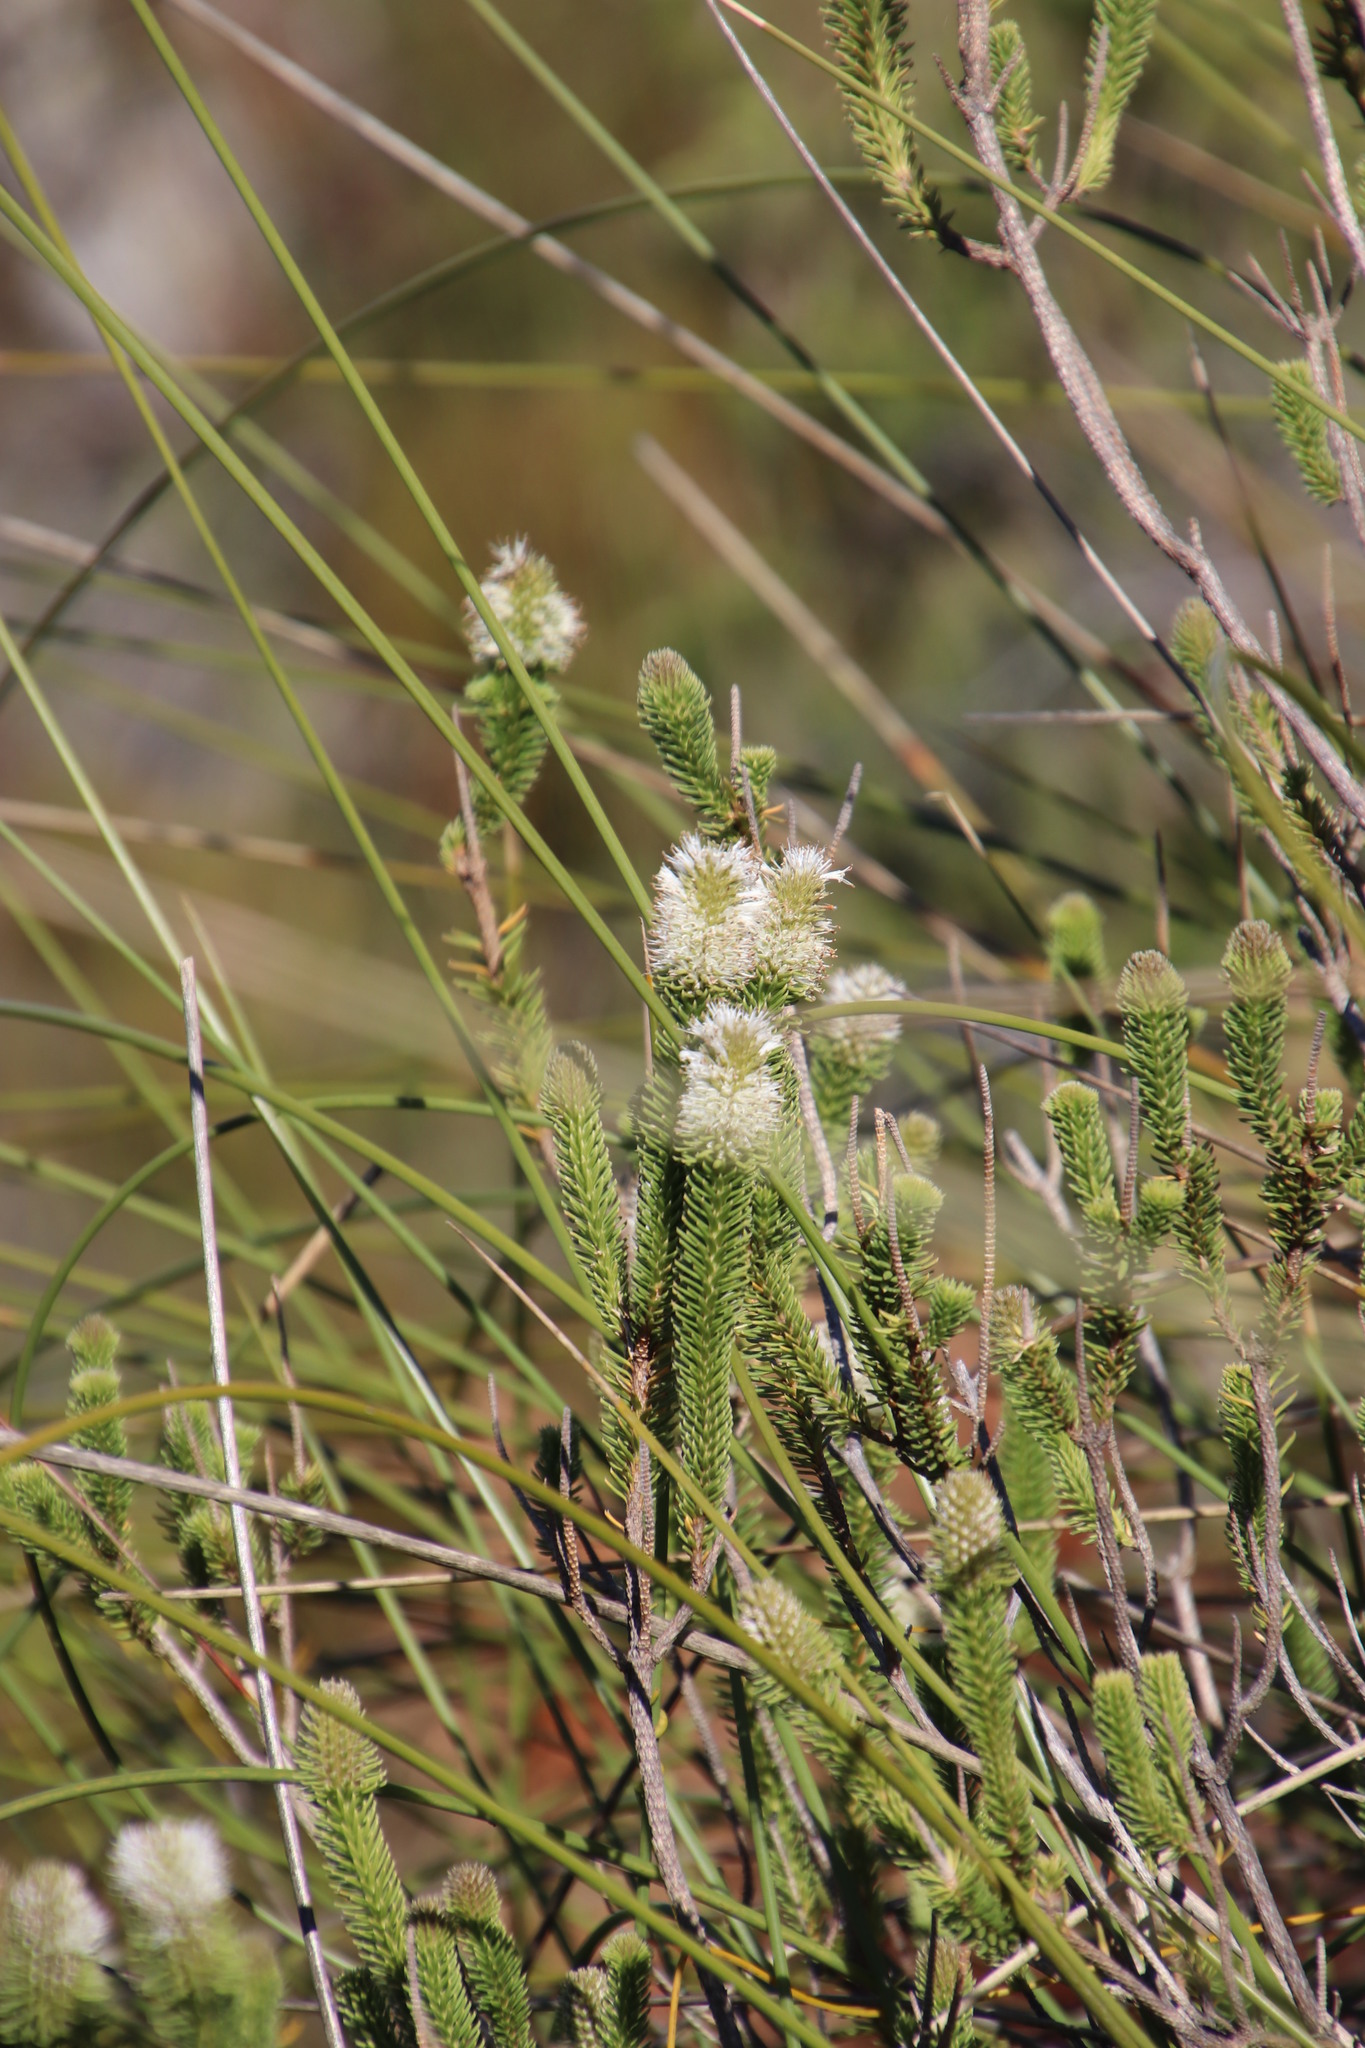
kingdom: Plantae
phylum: Tracheophyta
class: Magnoliopsida
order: Lamiales
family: Stilbaceae
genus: Stilbe
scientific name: Stilbe vestita
